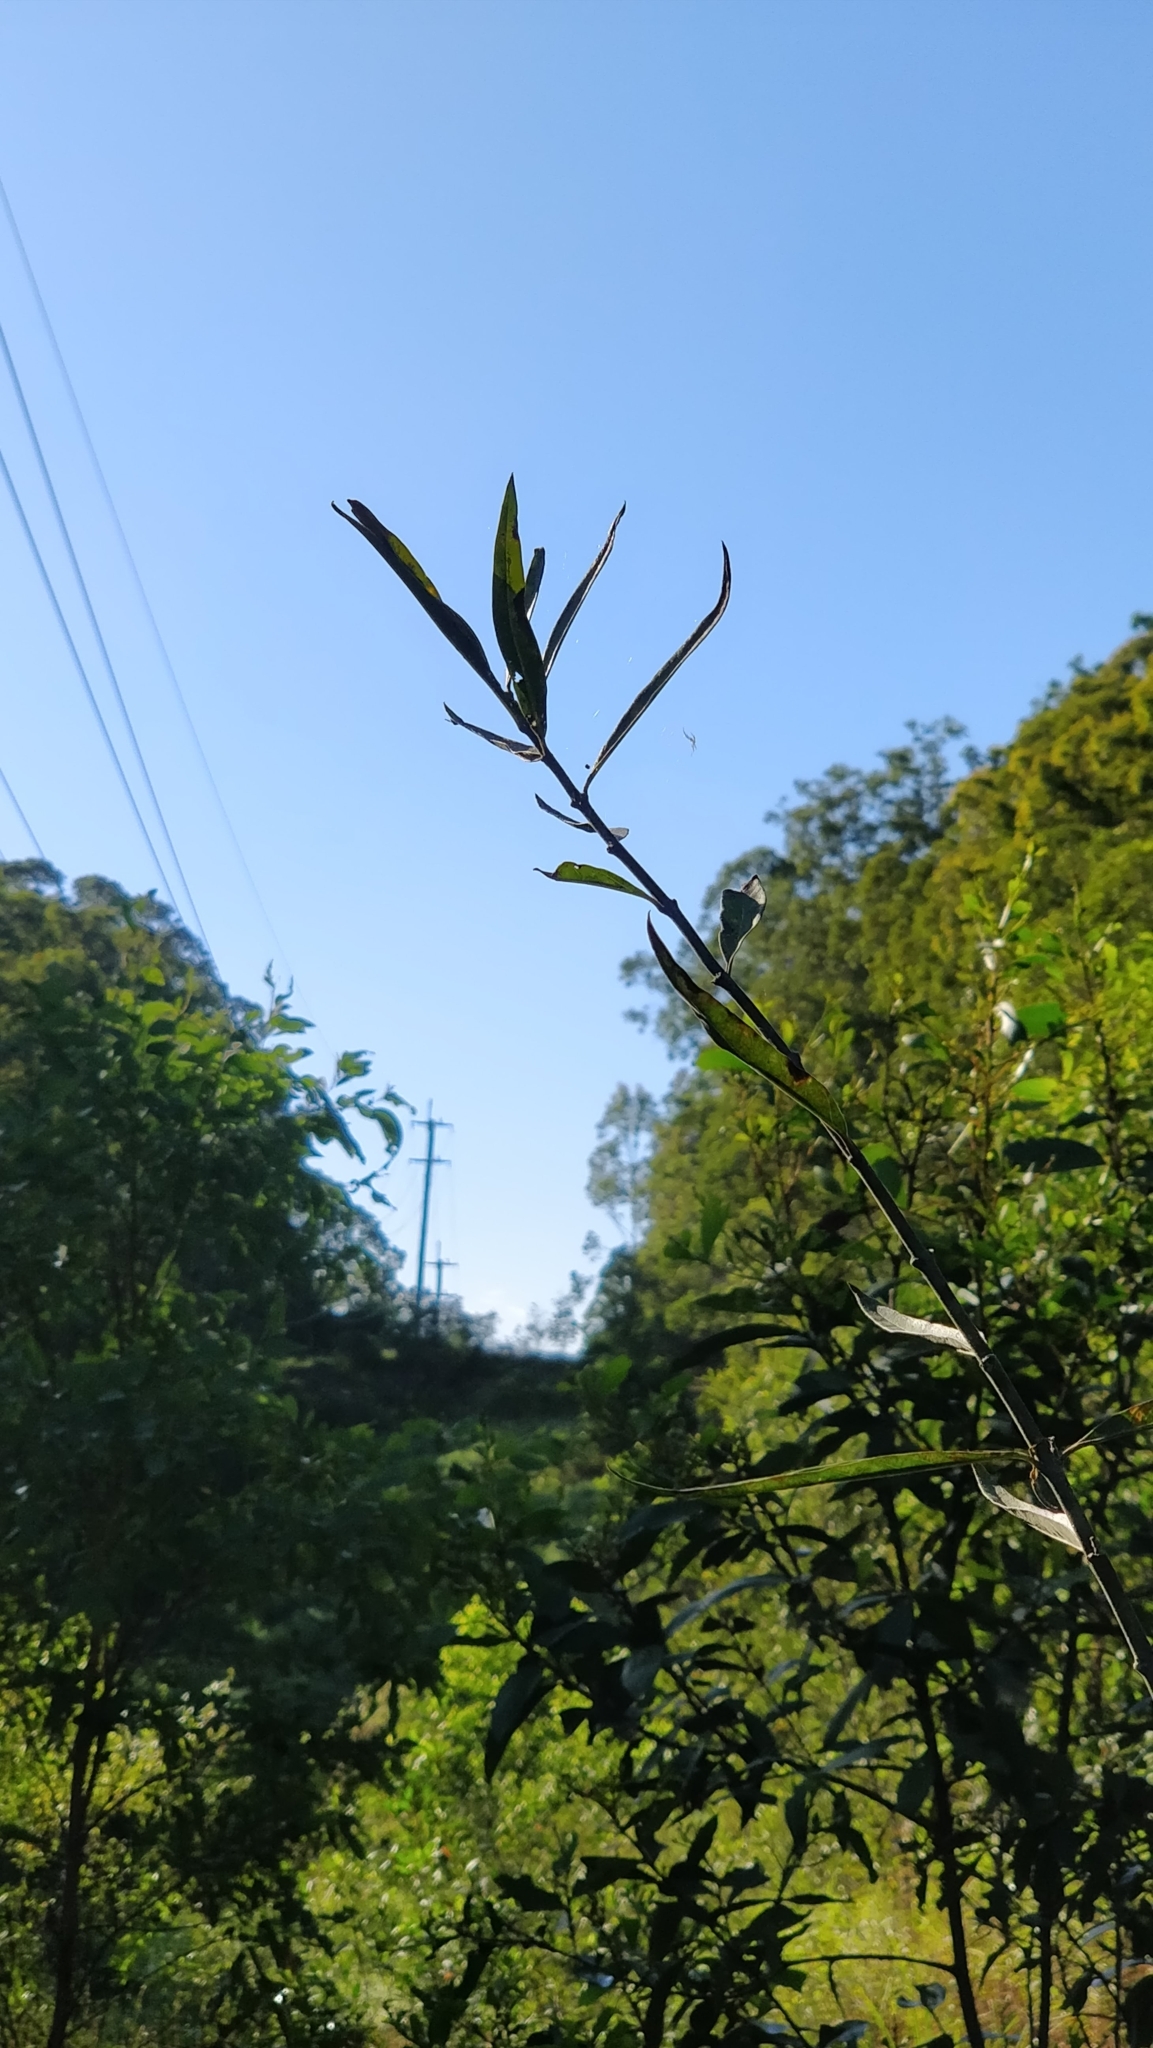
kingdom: Plantae
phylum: Tracheophyta
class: Magnoliopsida
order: Gentianales
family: Apocynaceae
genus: Gomphocarpus
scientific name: Gomphocarpus physocarpus
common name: Balloon cotton bush
